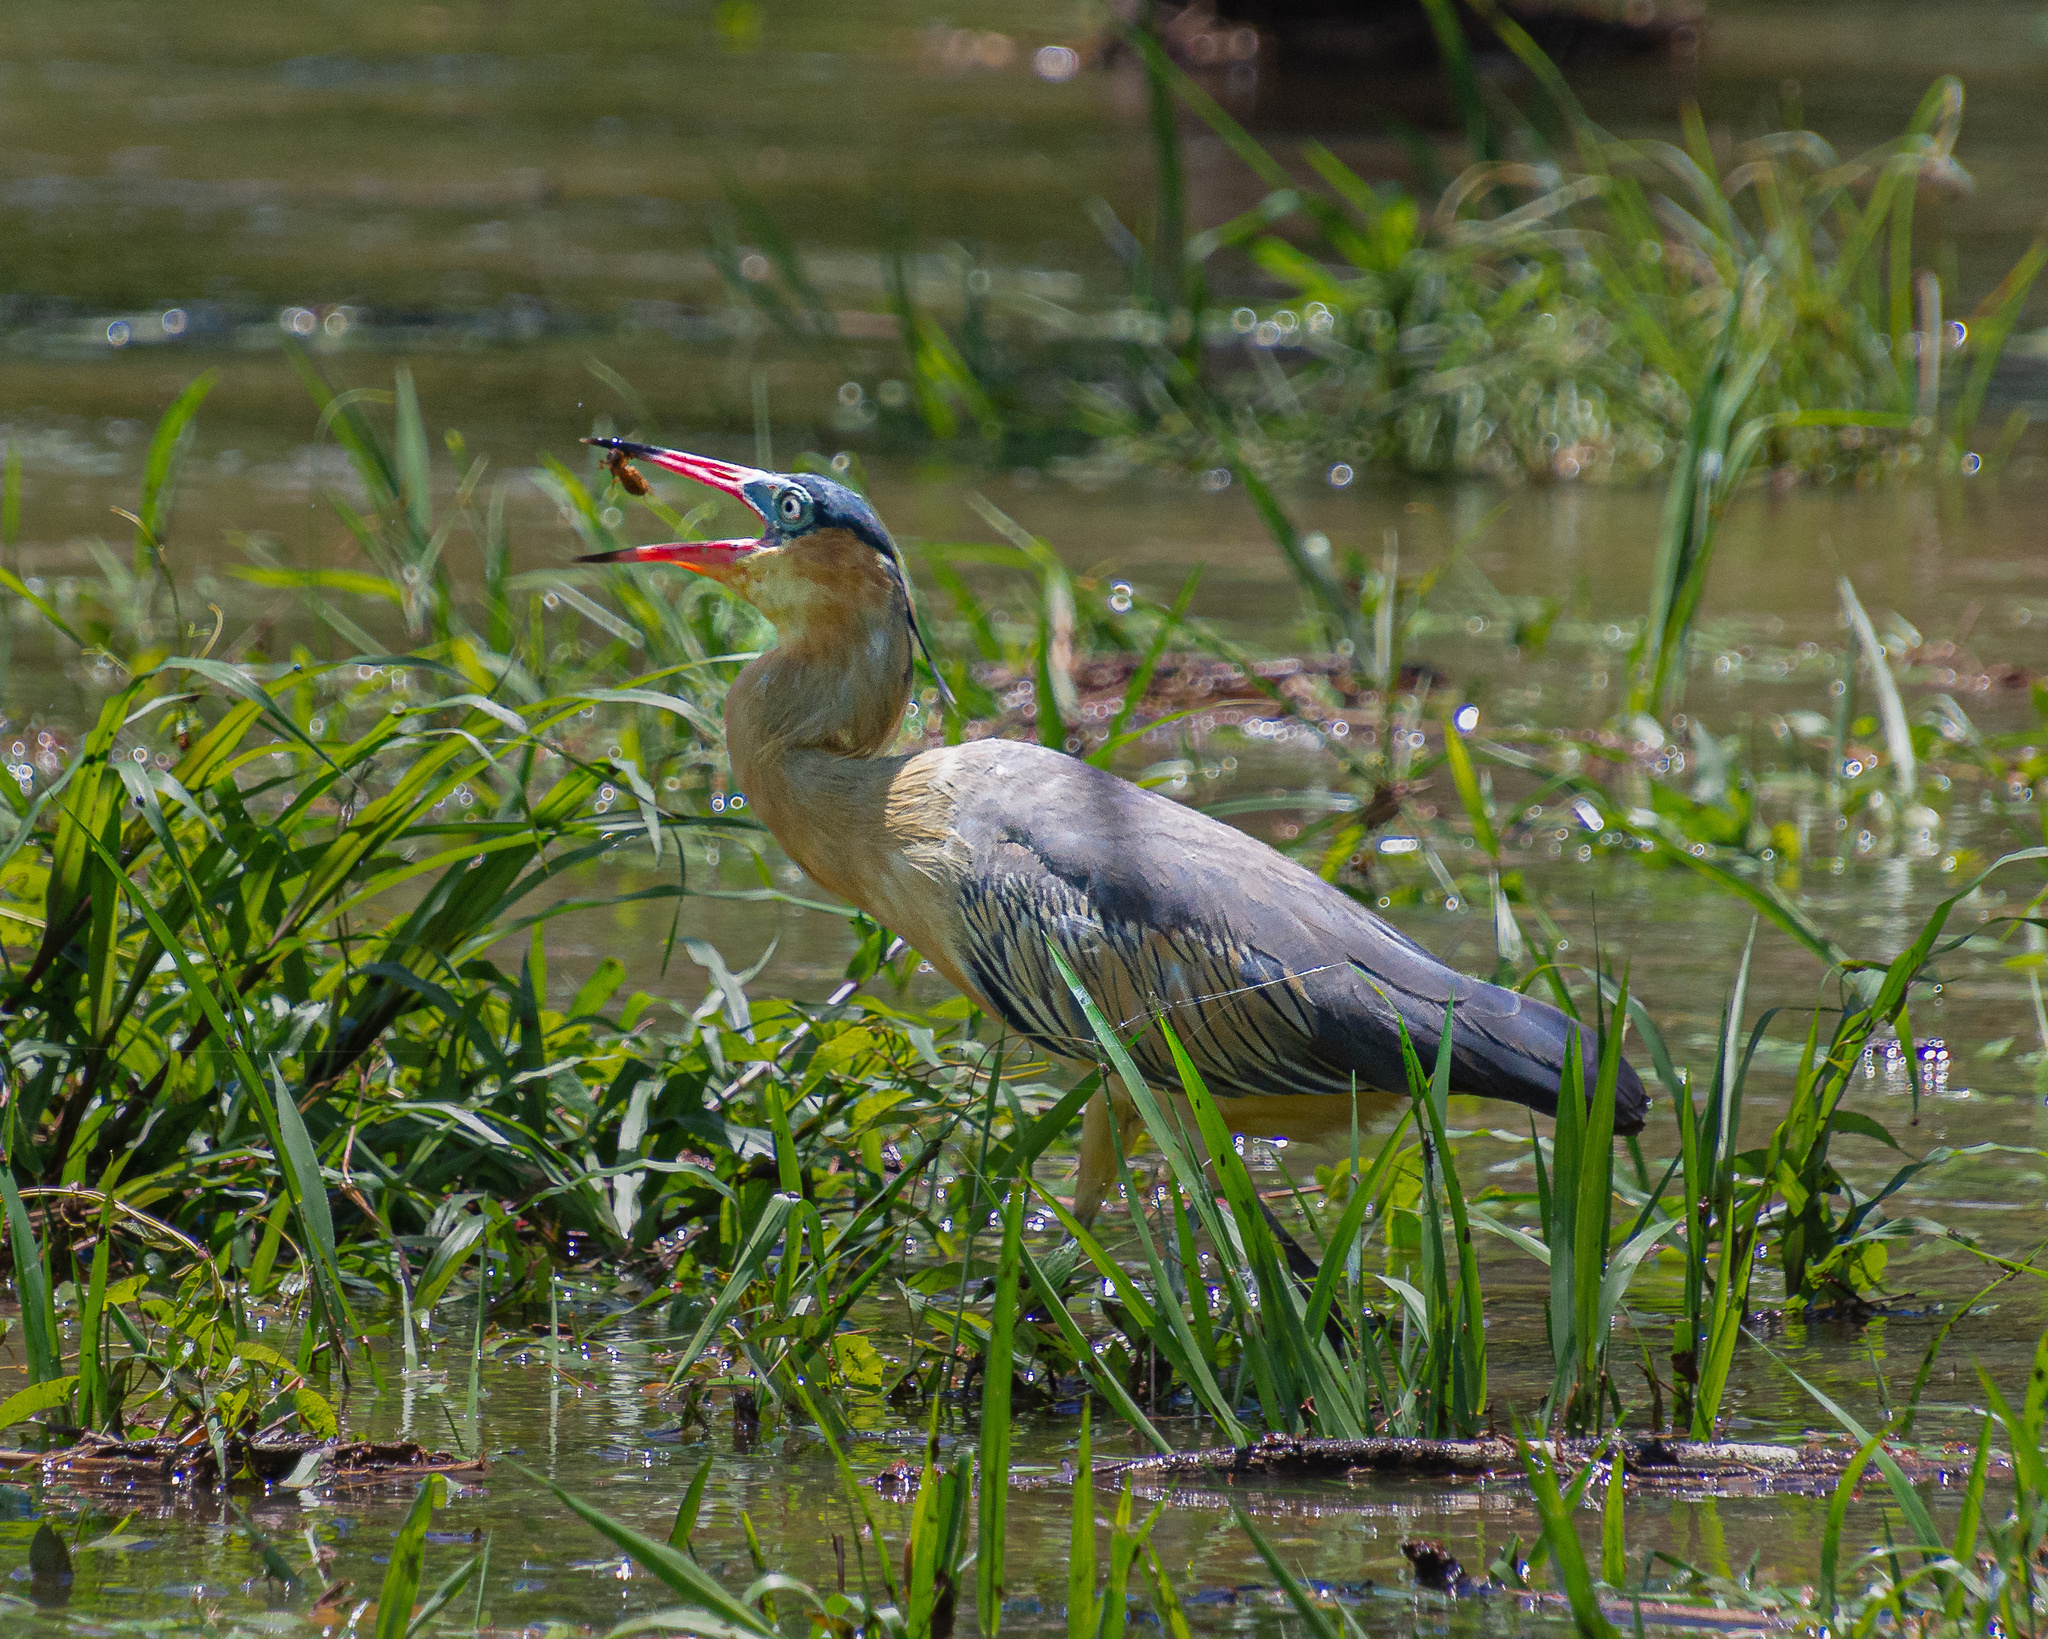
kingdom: Animalia
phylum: Chordata
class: Aves
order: Pelecaniformes
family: Ardeidae
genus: Syrigma
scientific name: Syrigma sibilatrix
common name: Whistling heron
